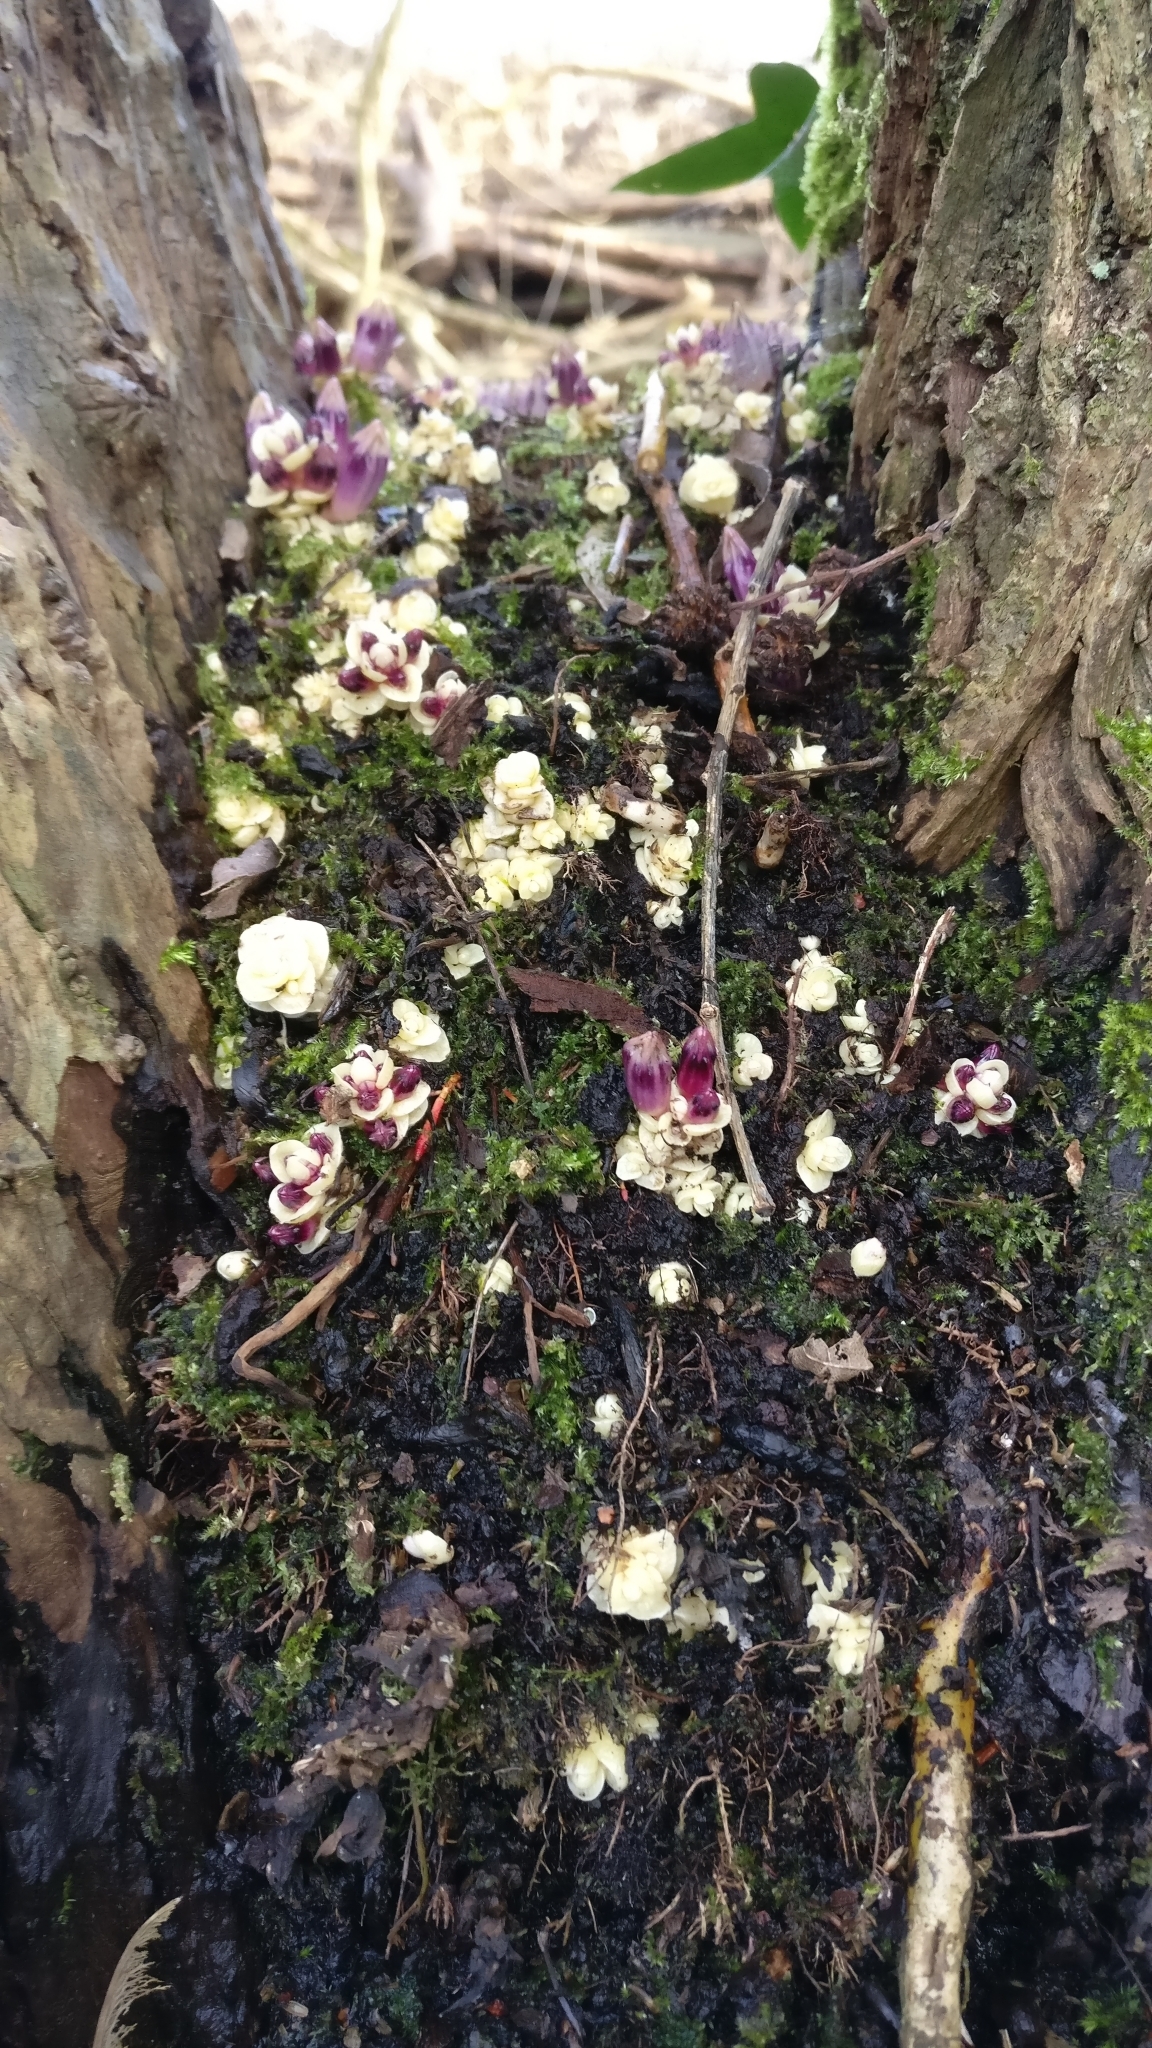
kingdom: Plantae
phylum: Tracheophyta
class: Magnoliopsida
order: Lamiales
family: Orobanchaceae
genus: Lathraea
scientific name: Lathraea clandestina
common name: Purple toothwort
